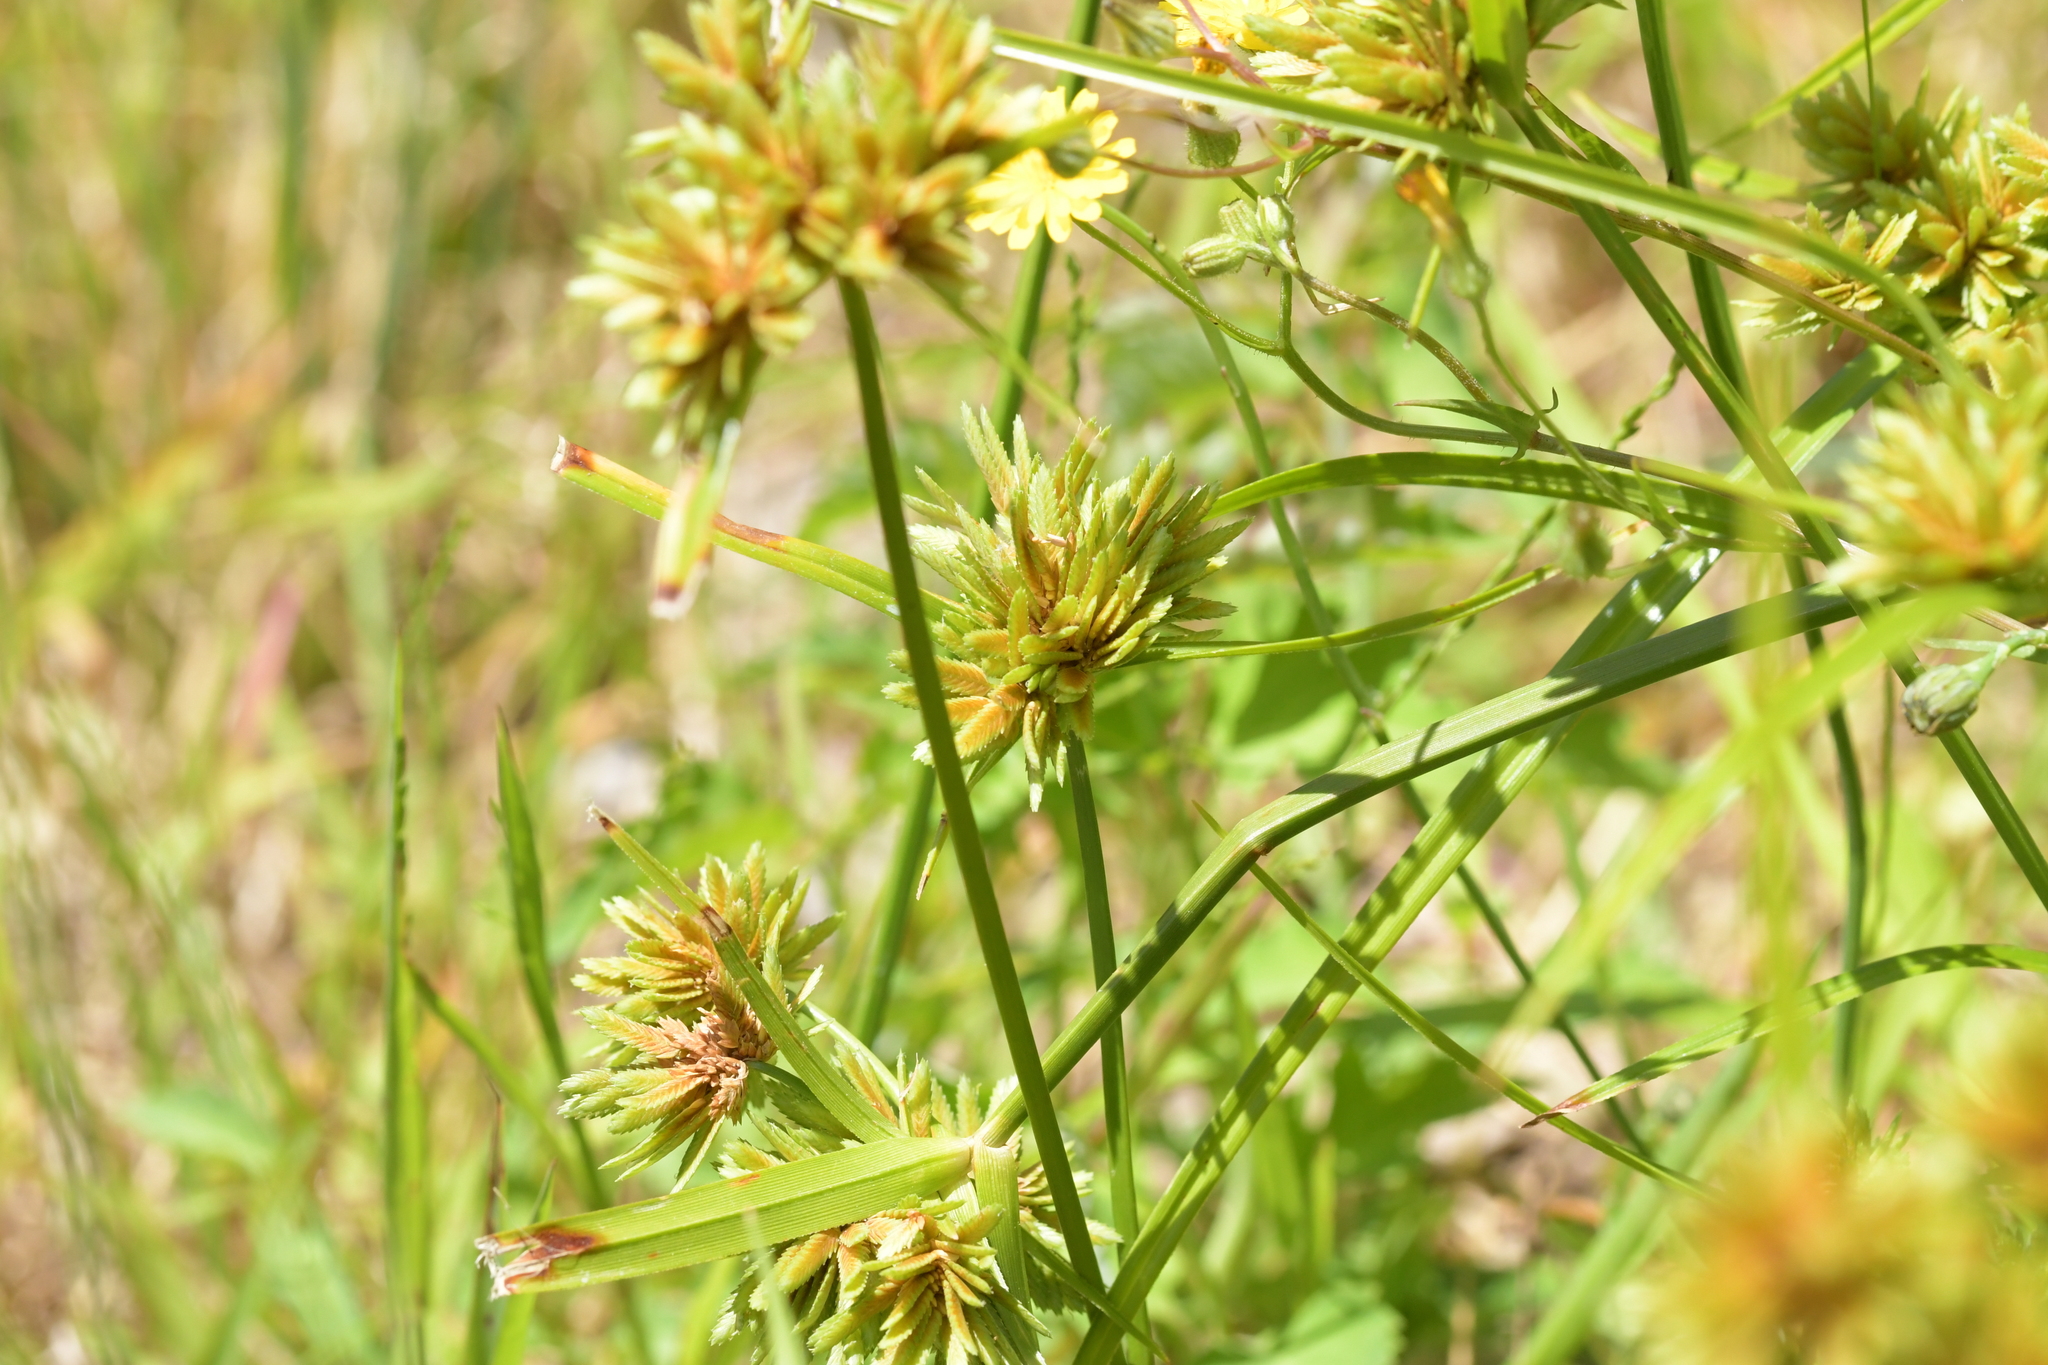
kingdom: Plantae
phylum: Tracheophyta
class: Liliopsida
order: Poales
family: Cyperaceae
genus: Cyperus
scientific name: Cyperus eragrostis
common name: Tall flatsedge
